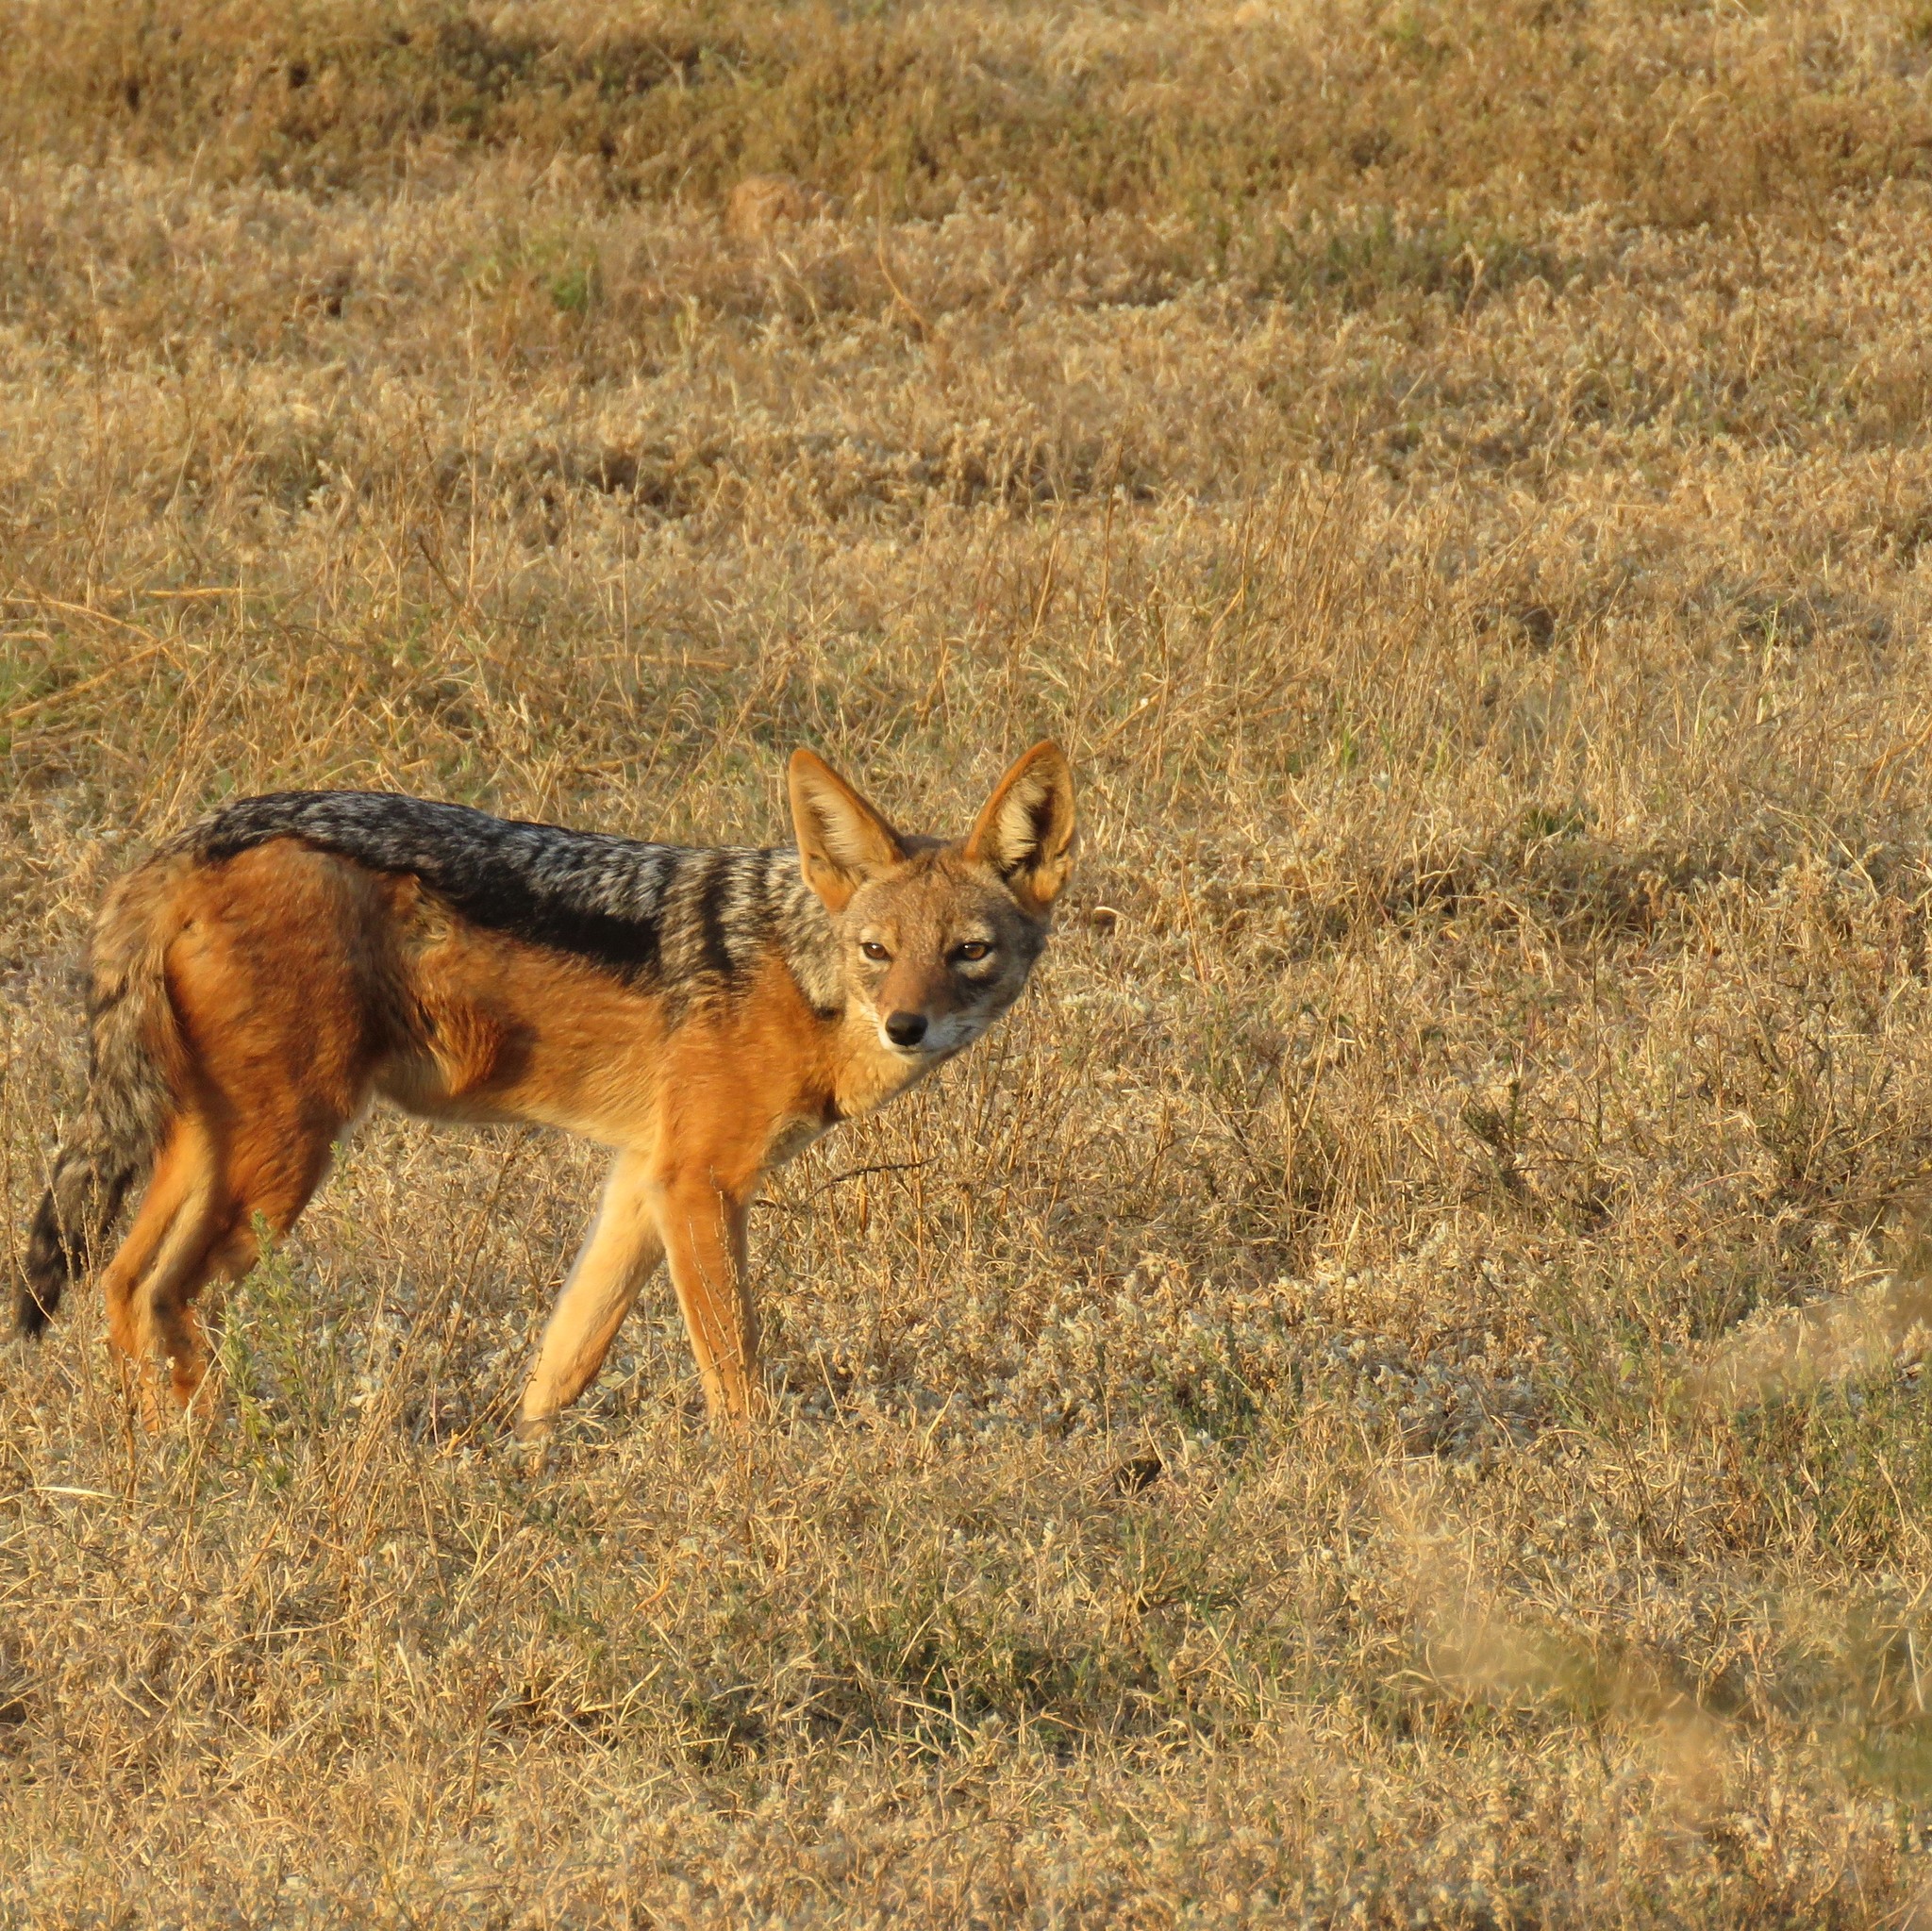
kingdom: Animalia
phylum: Chordata
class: Mammalia
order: Carnivora
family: Canidae
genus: Lupulella
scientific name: Lupulella
